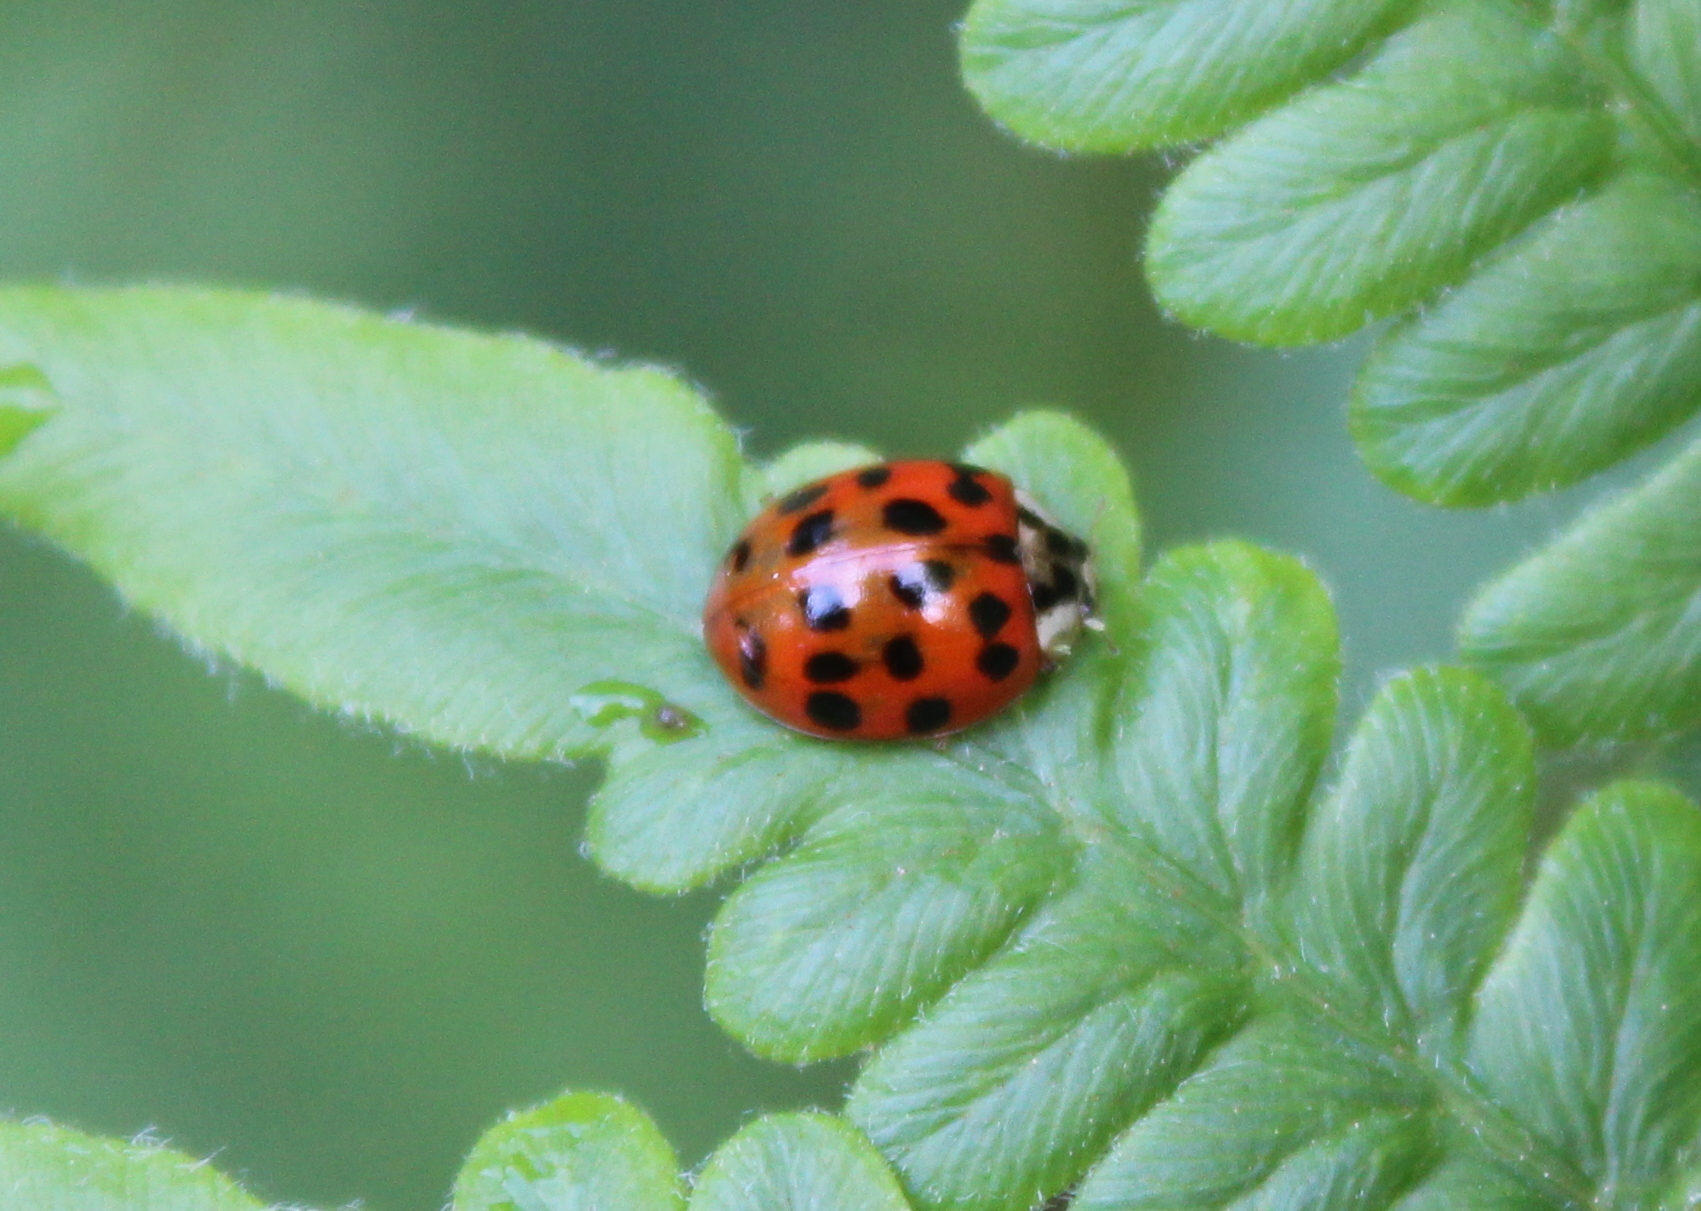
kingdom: Animalia
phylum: Arthropoda
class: Insecta
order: Coleoptera
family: Coccinellidae
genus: Harmonia
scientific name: Harmonia axyridis
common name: Harlequin ladybird
